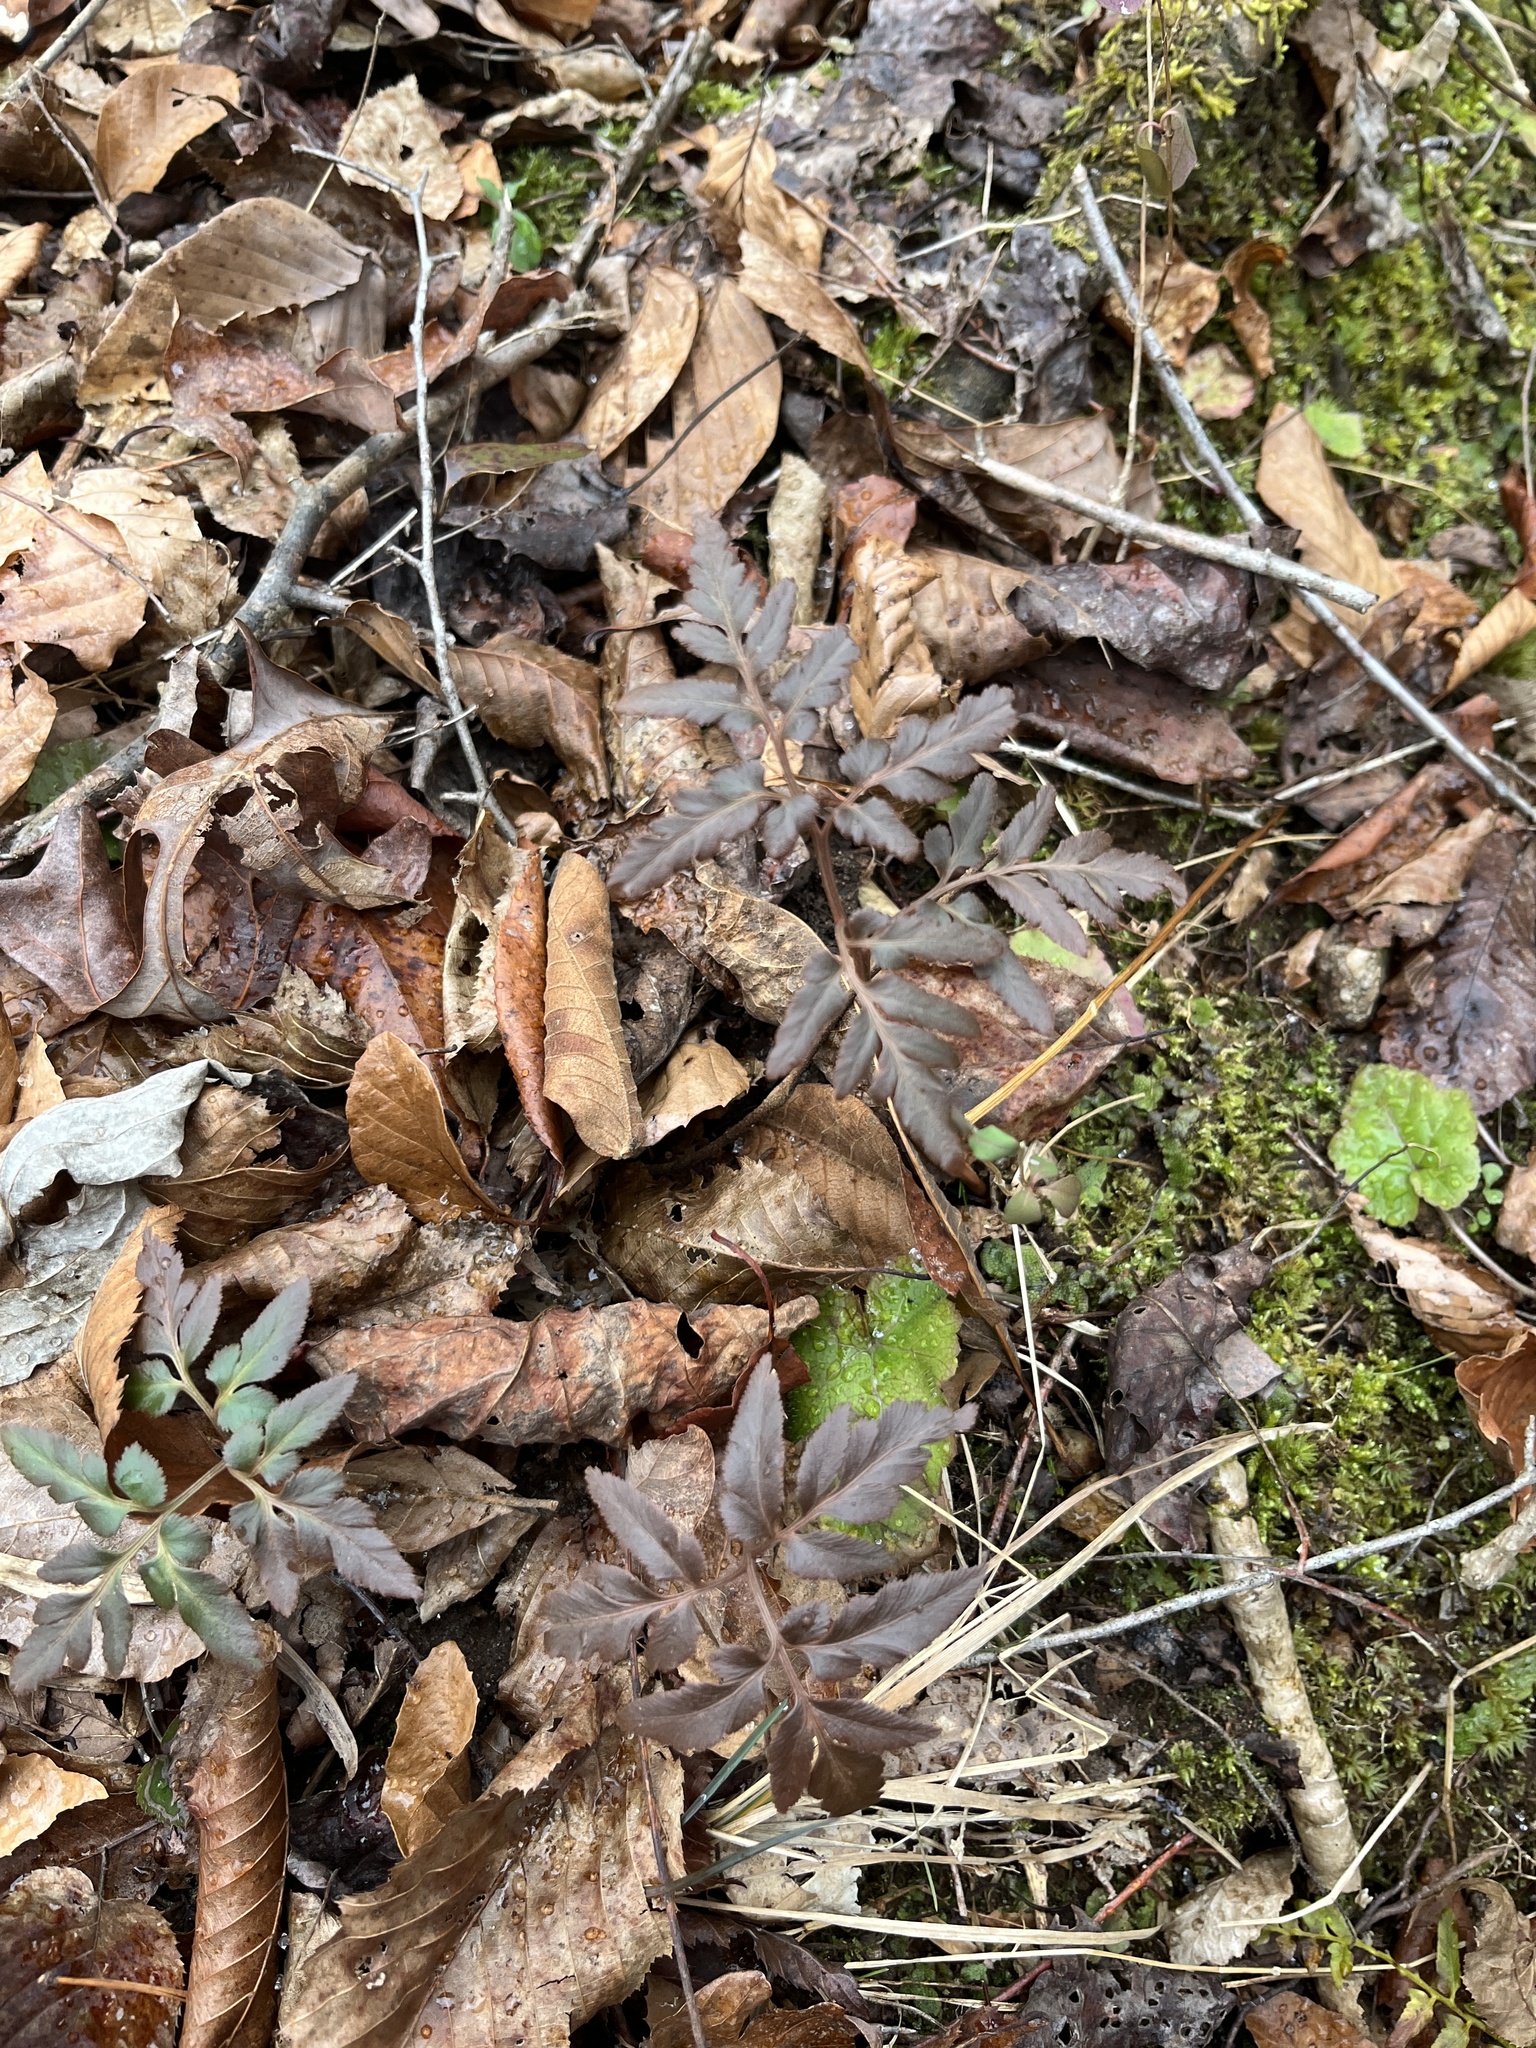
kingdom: Plantae
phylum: Tracheophyta
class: Polypodiopsida
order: Ophioglossales
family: Ophioglossaceae
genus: Sceptridium
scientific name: Sceptridium dissectum
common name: Cut-leaved grapefern
